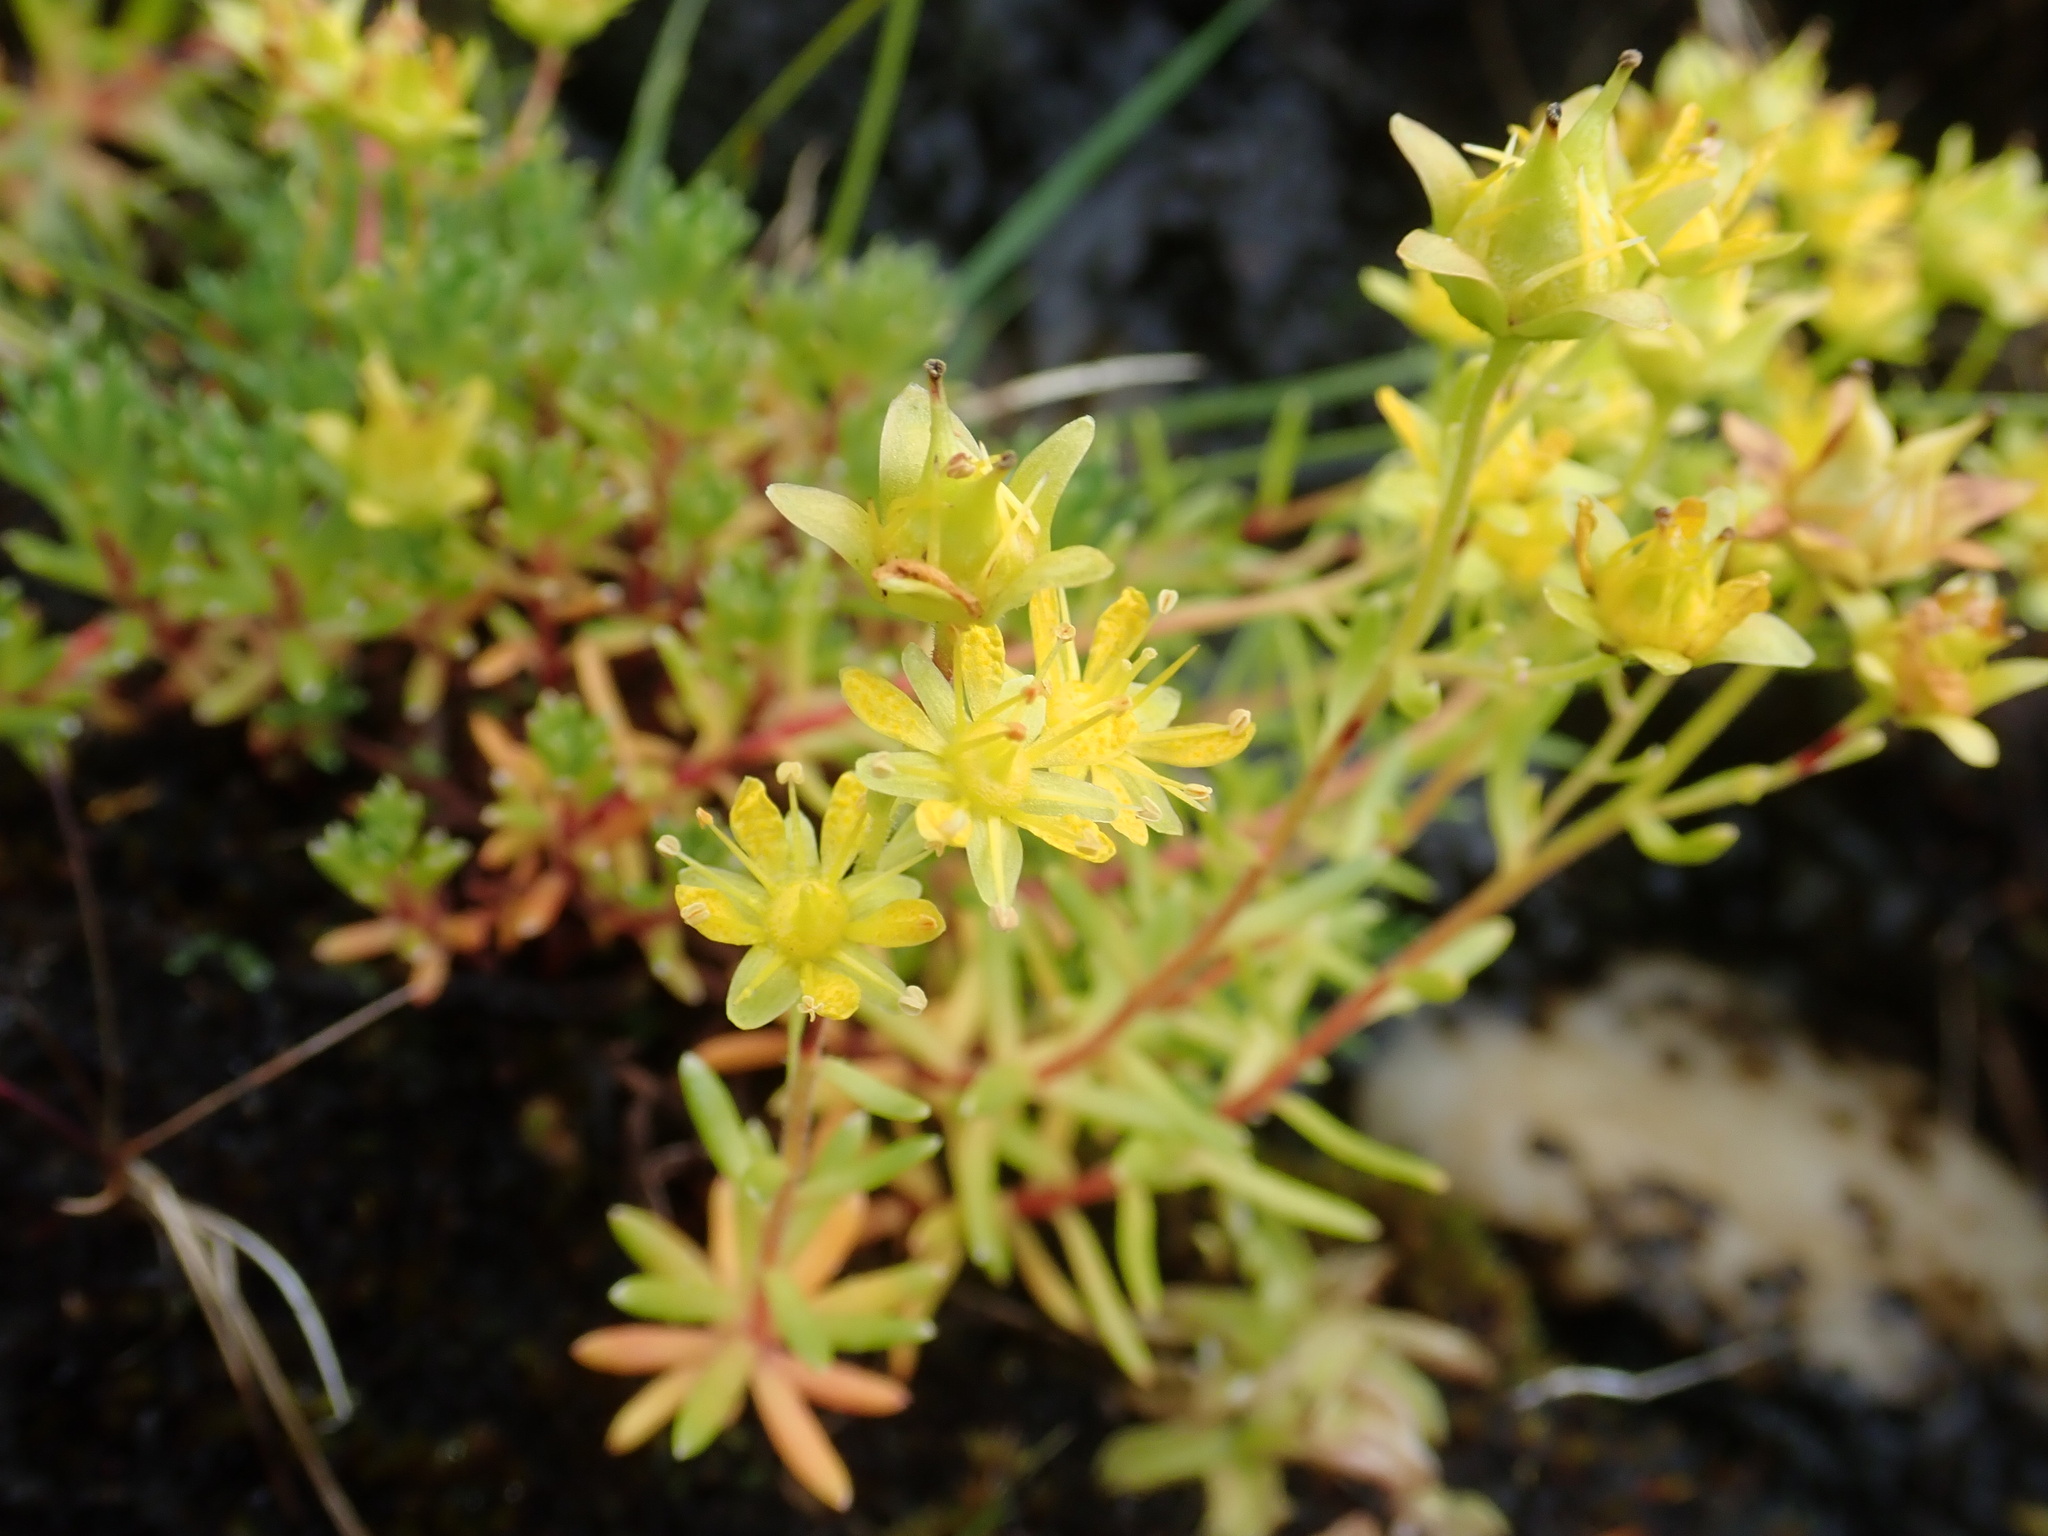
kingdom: Plantae
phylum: Tracheophyta
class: Magnoliopsida
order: Saxifragales
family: Saxifragaceae
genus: Saxifraga
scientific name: Saxifraga aizoides
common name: Yellow mountain saxifrage
